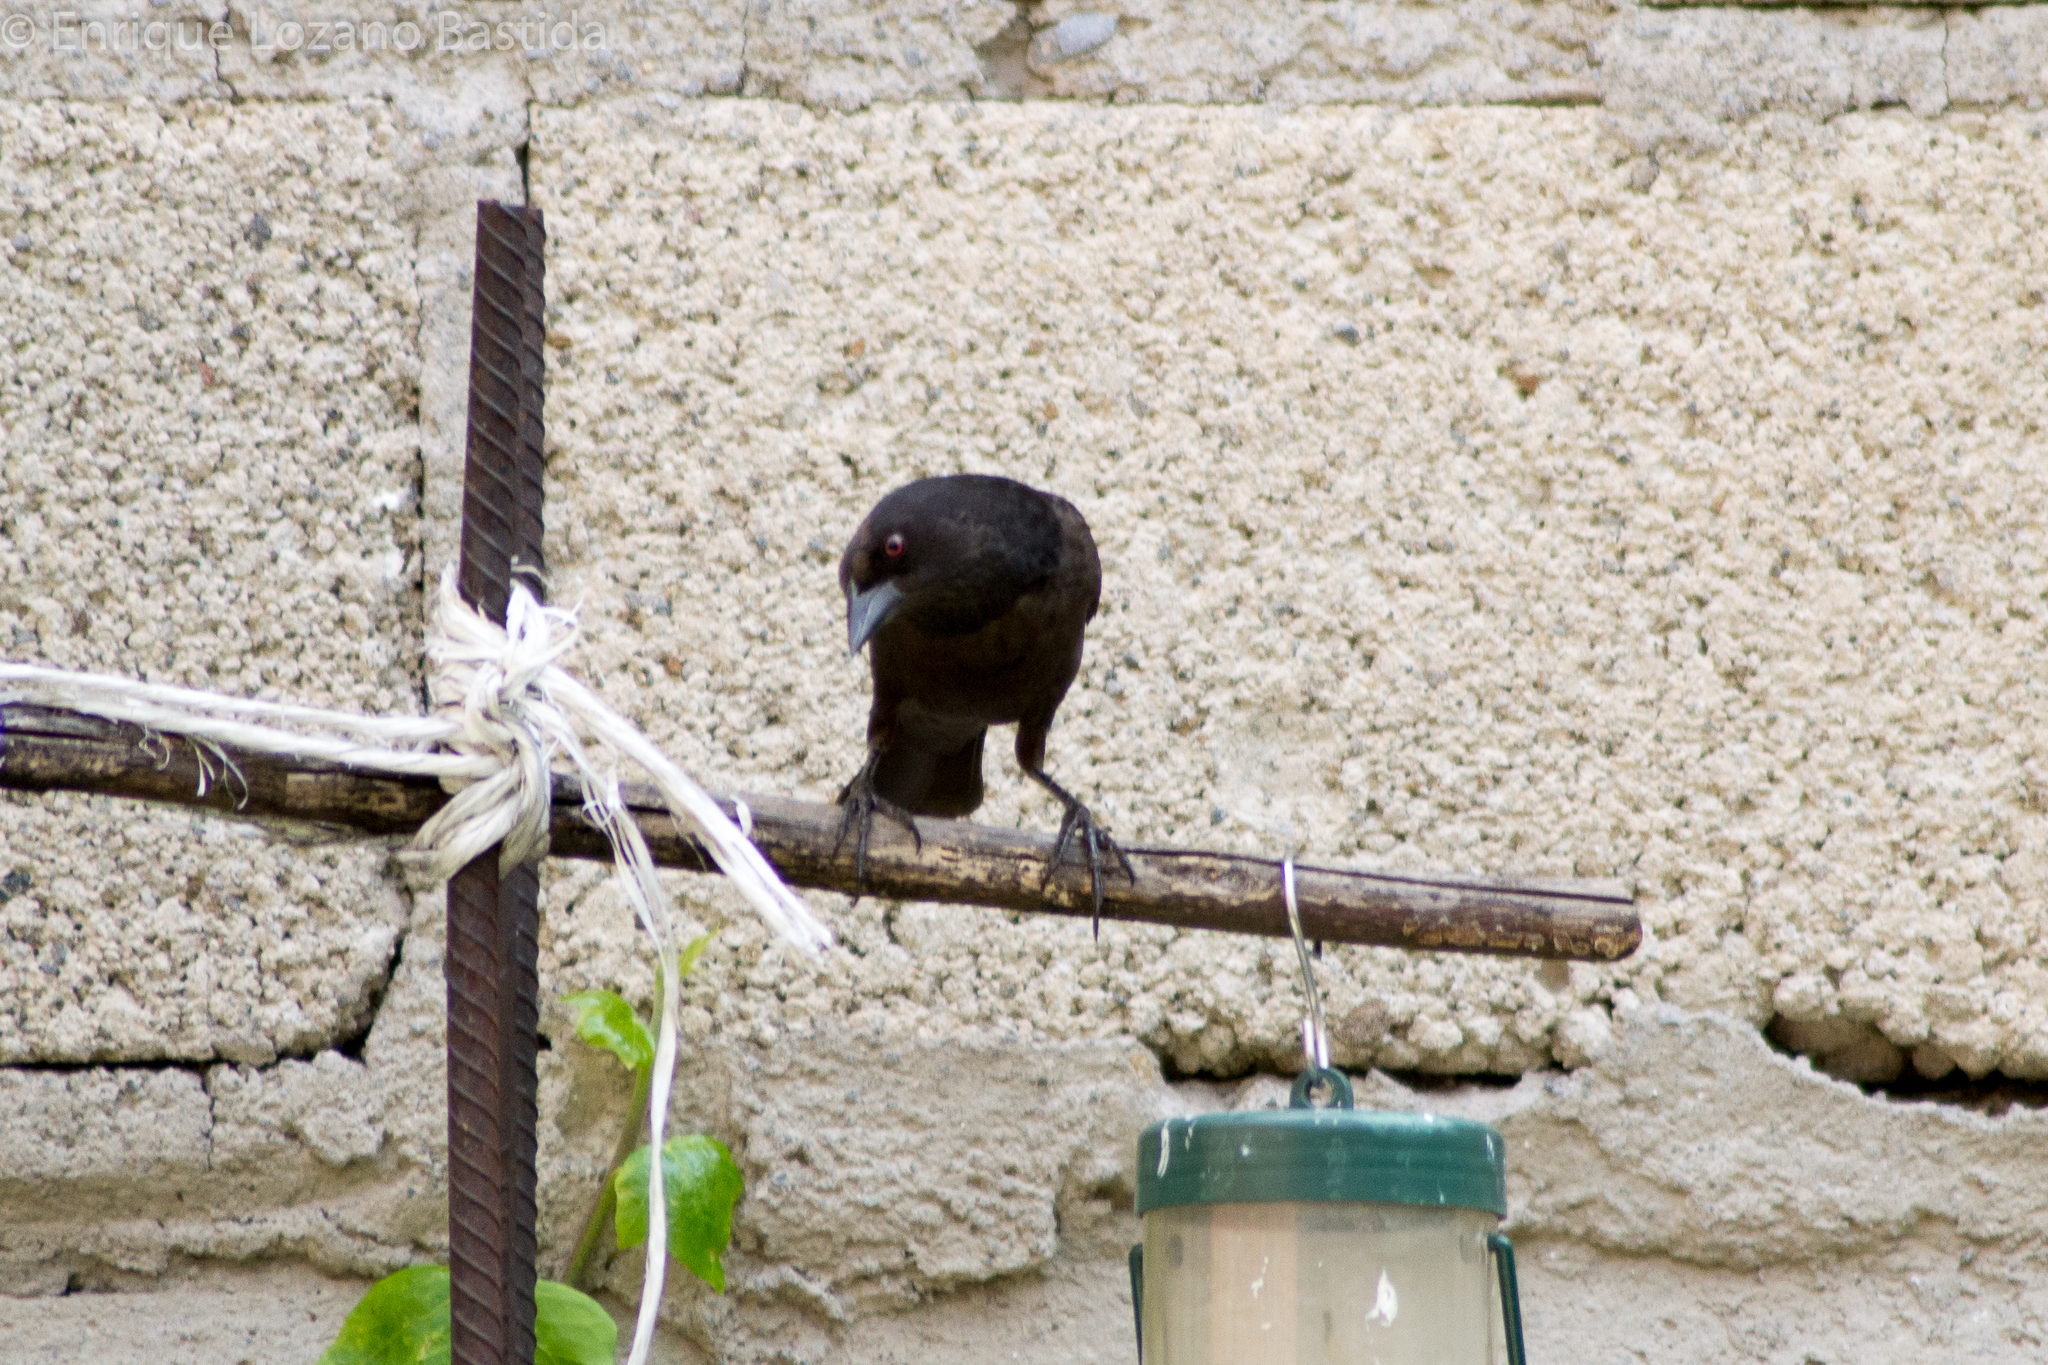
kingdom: Animalia
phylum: Chordata
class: Aves
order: Passeriformes
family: Icteridae
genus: Molothrus
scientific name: Molothrus aeneus
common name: Bronzed cowbird
